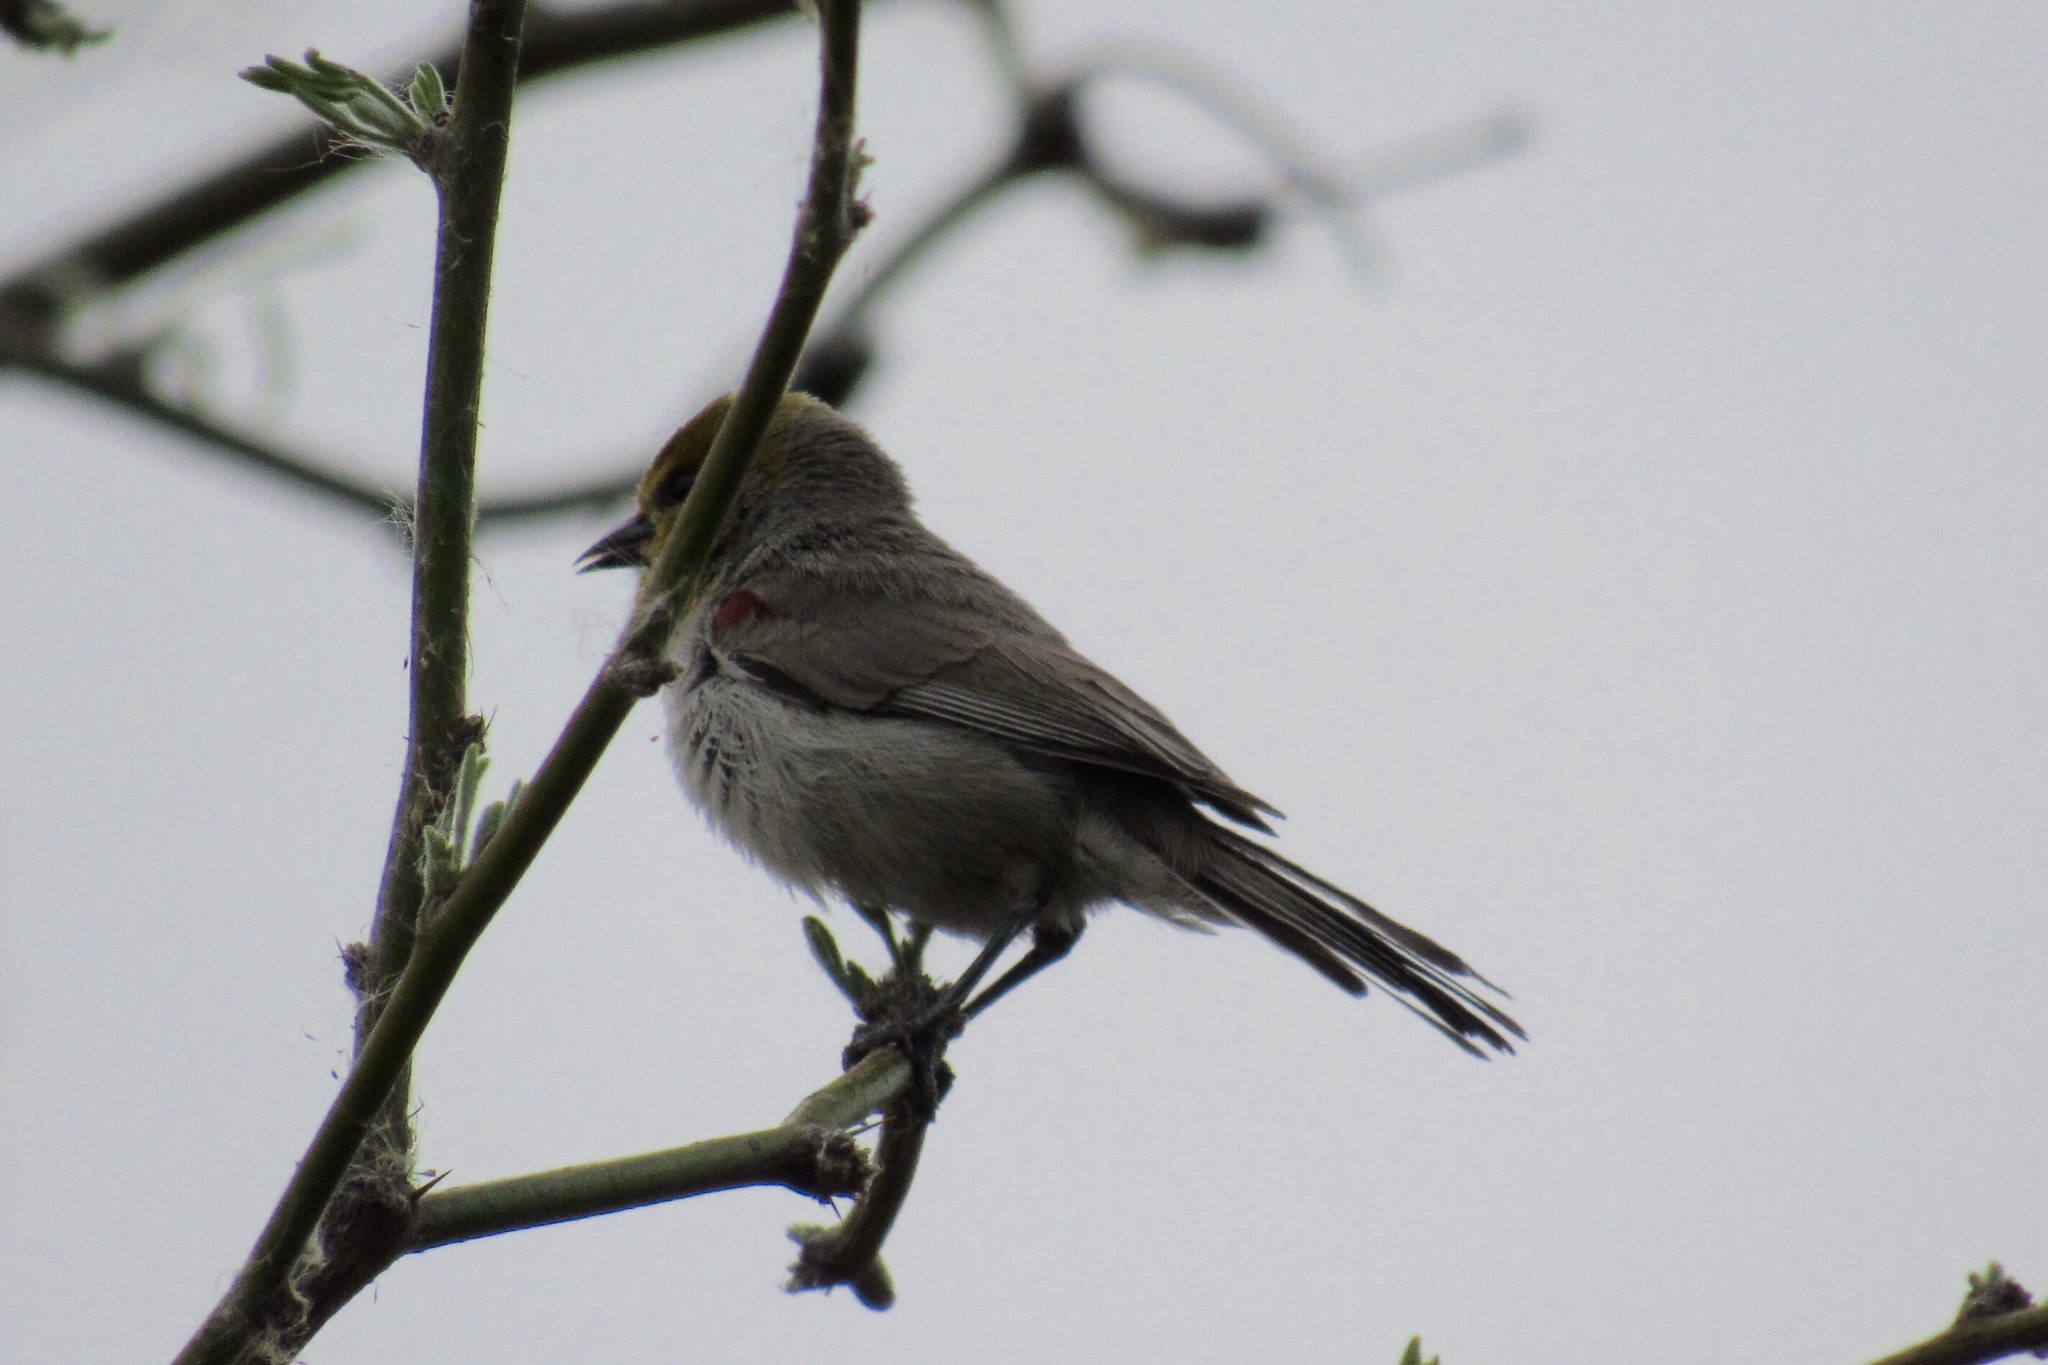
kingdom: Animalia
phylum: Chordata
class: Aves
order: Passeriformes
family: Remizidae
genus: Auriparus
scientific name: Auriparus flaviceps
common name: Verdin
